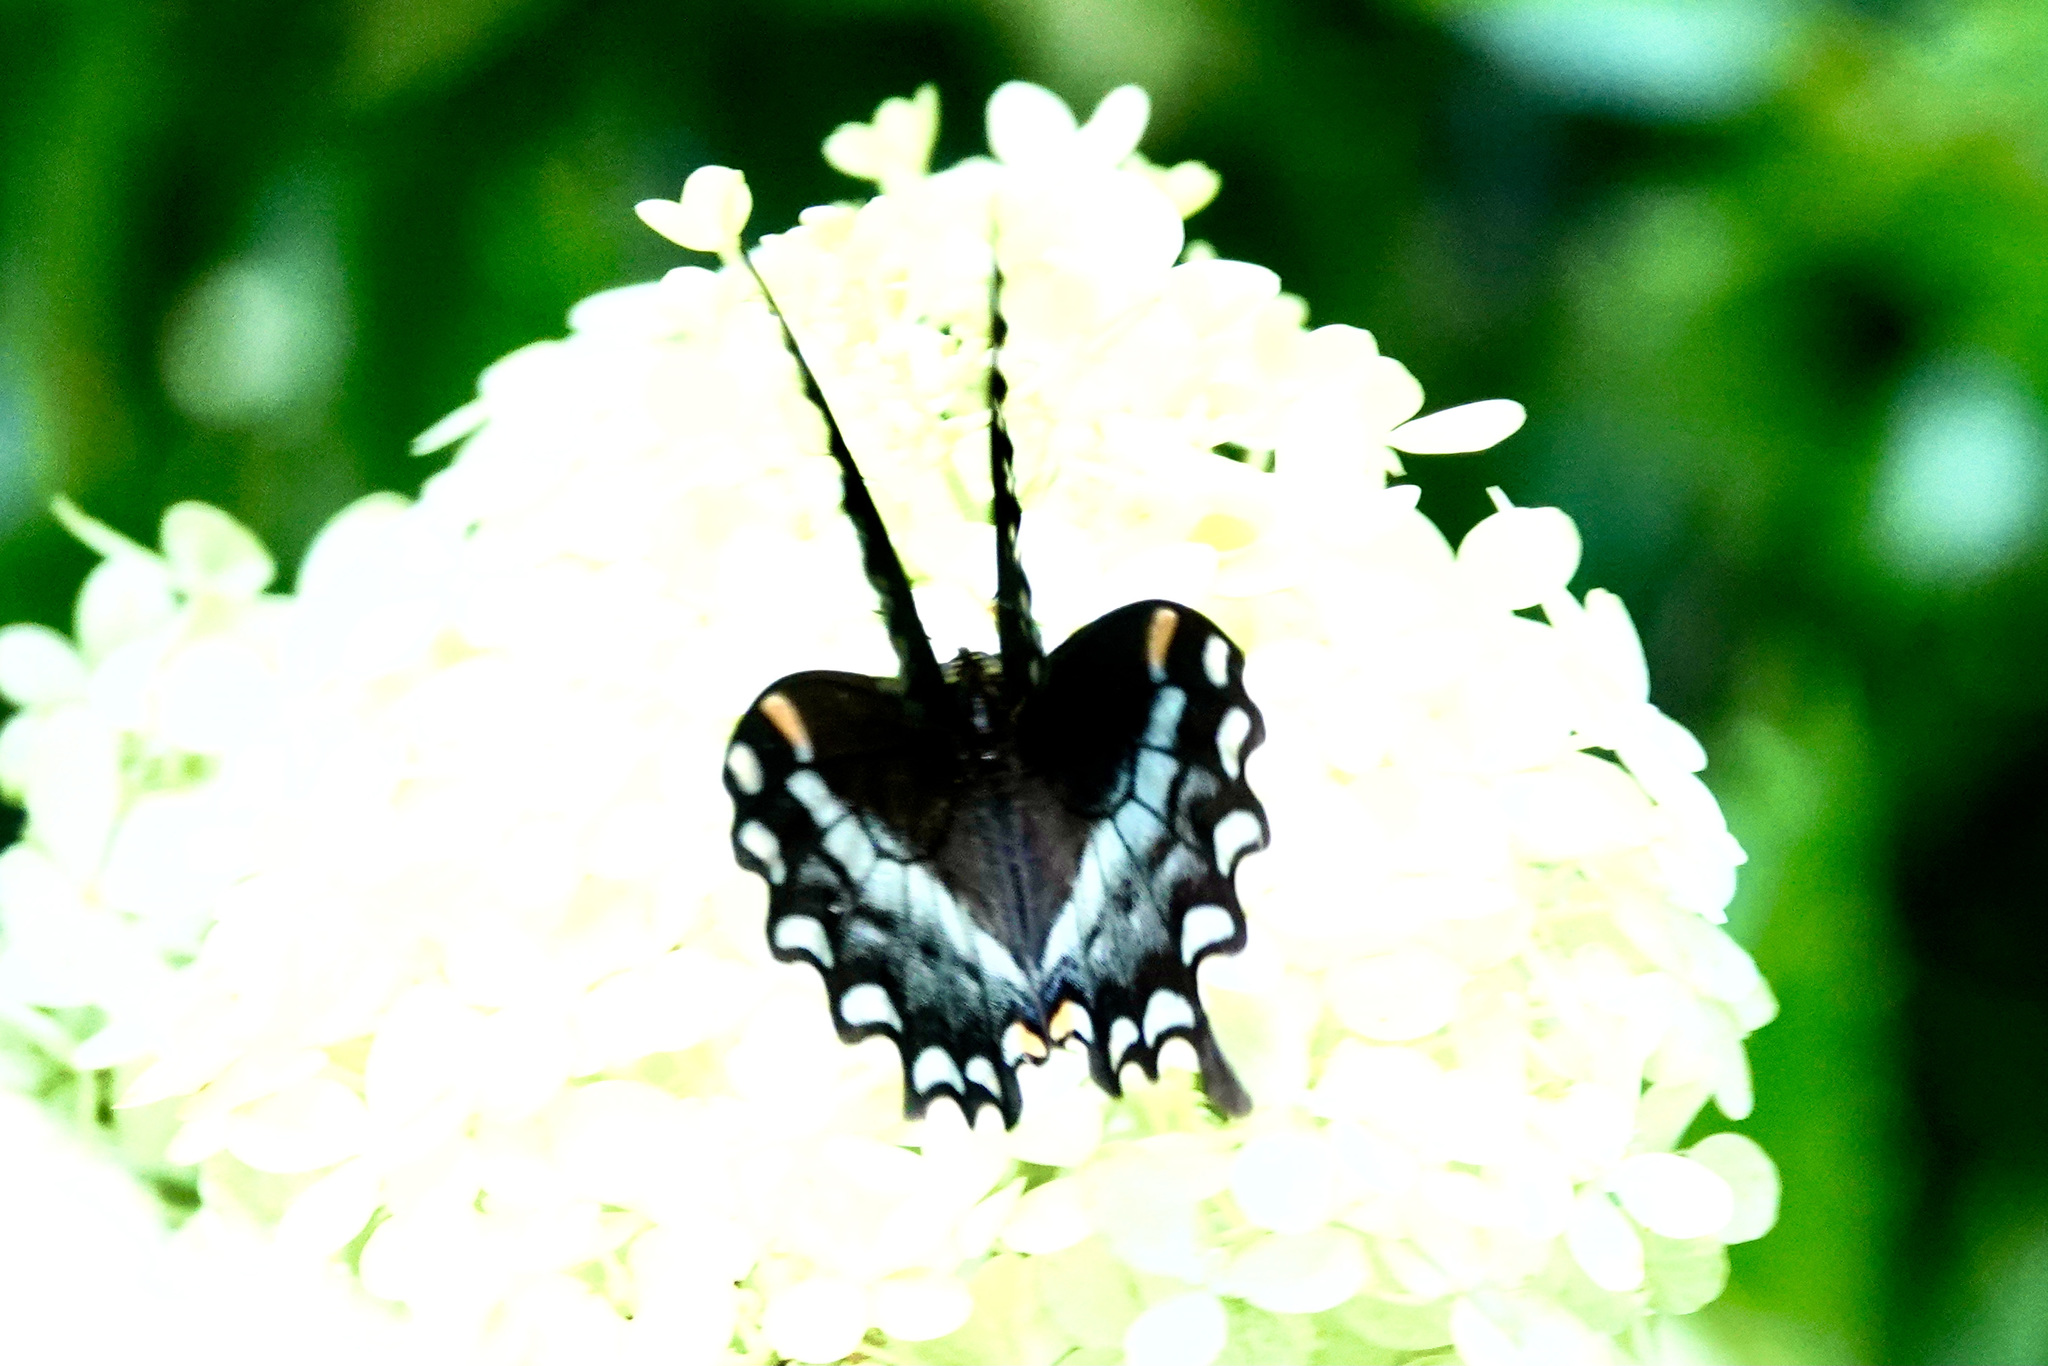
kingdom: Animalia
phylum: Arthropoda
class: Insecta
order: Lepidoptera
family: Papilionidae
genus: Papilio
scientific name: Papilio troilus
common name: Spicebush swallowtail
